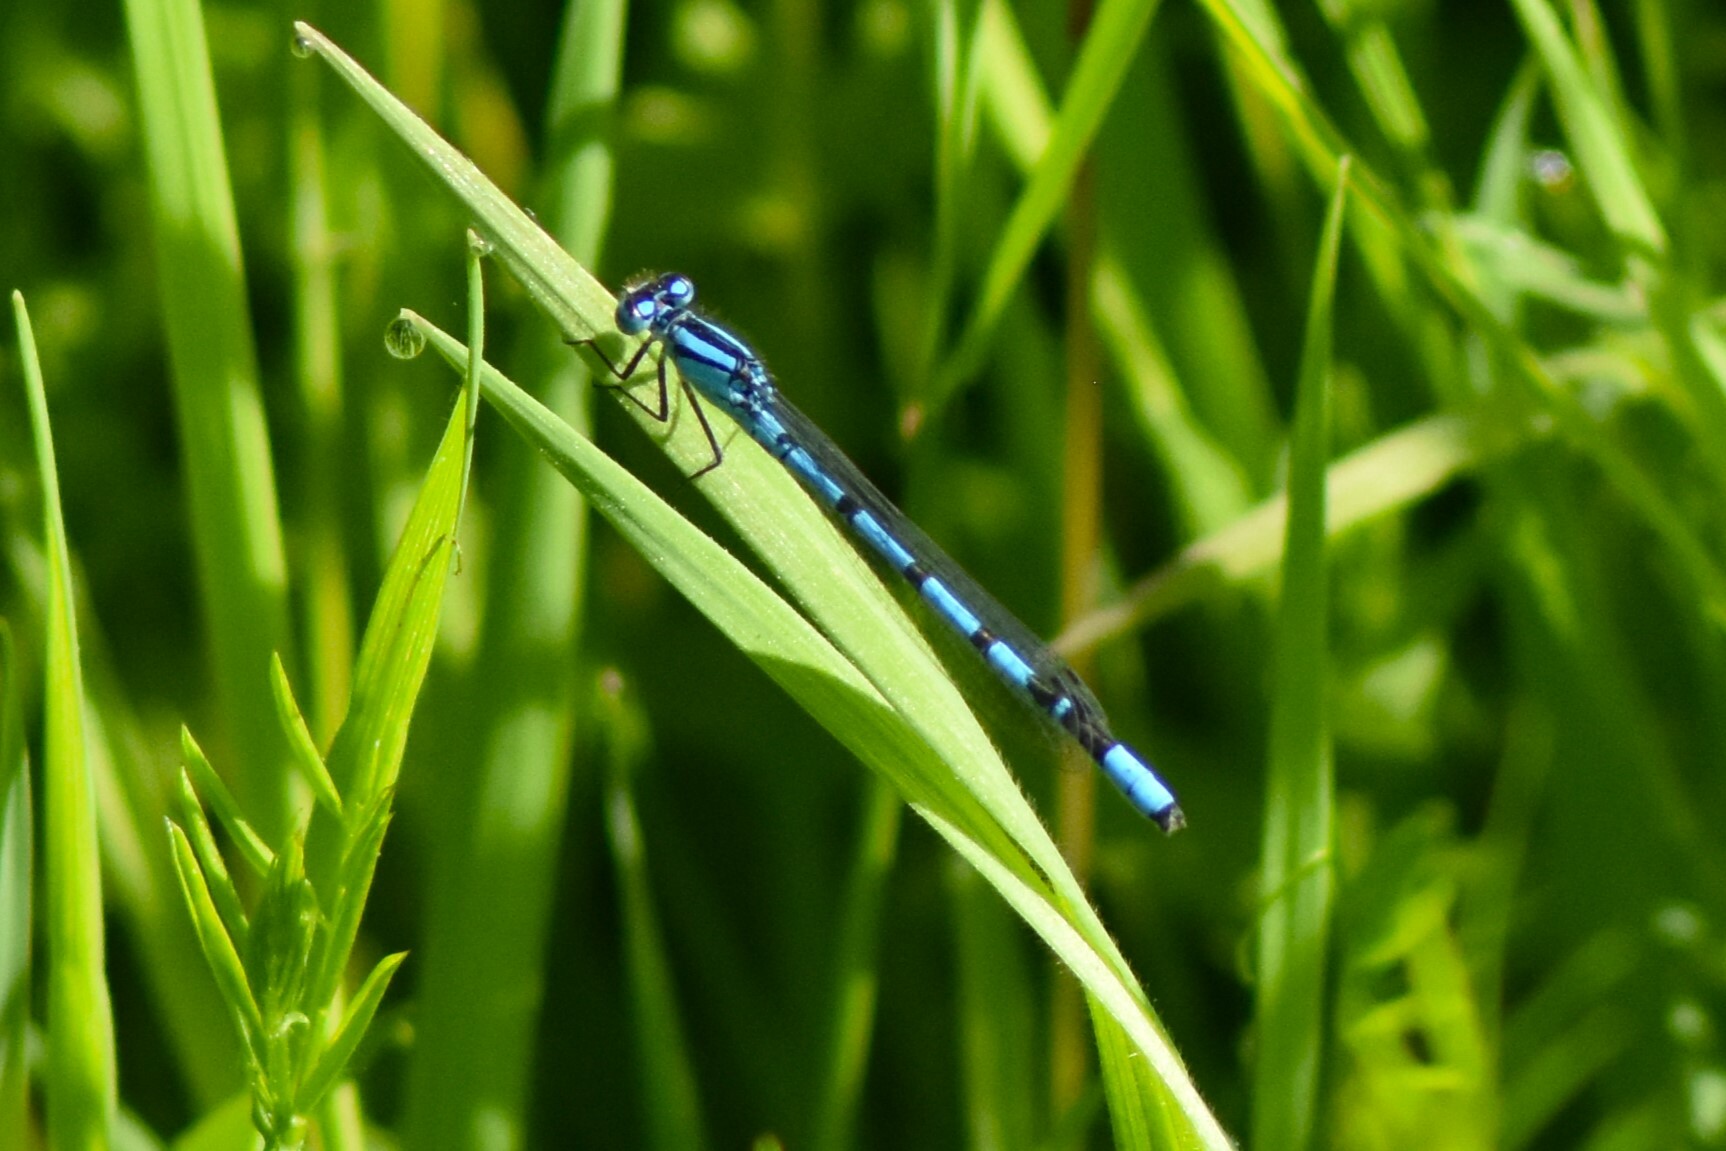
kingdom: Animalia
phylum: Arthropoda
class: Insecta
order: Odonata
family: Coenagrionidae
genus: Enallagma
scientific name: Enallagma cyathigerum
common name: Common blue damselfly
